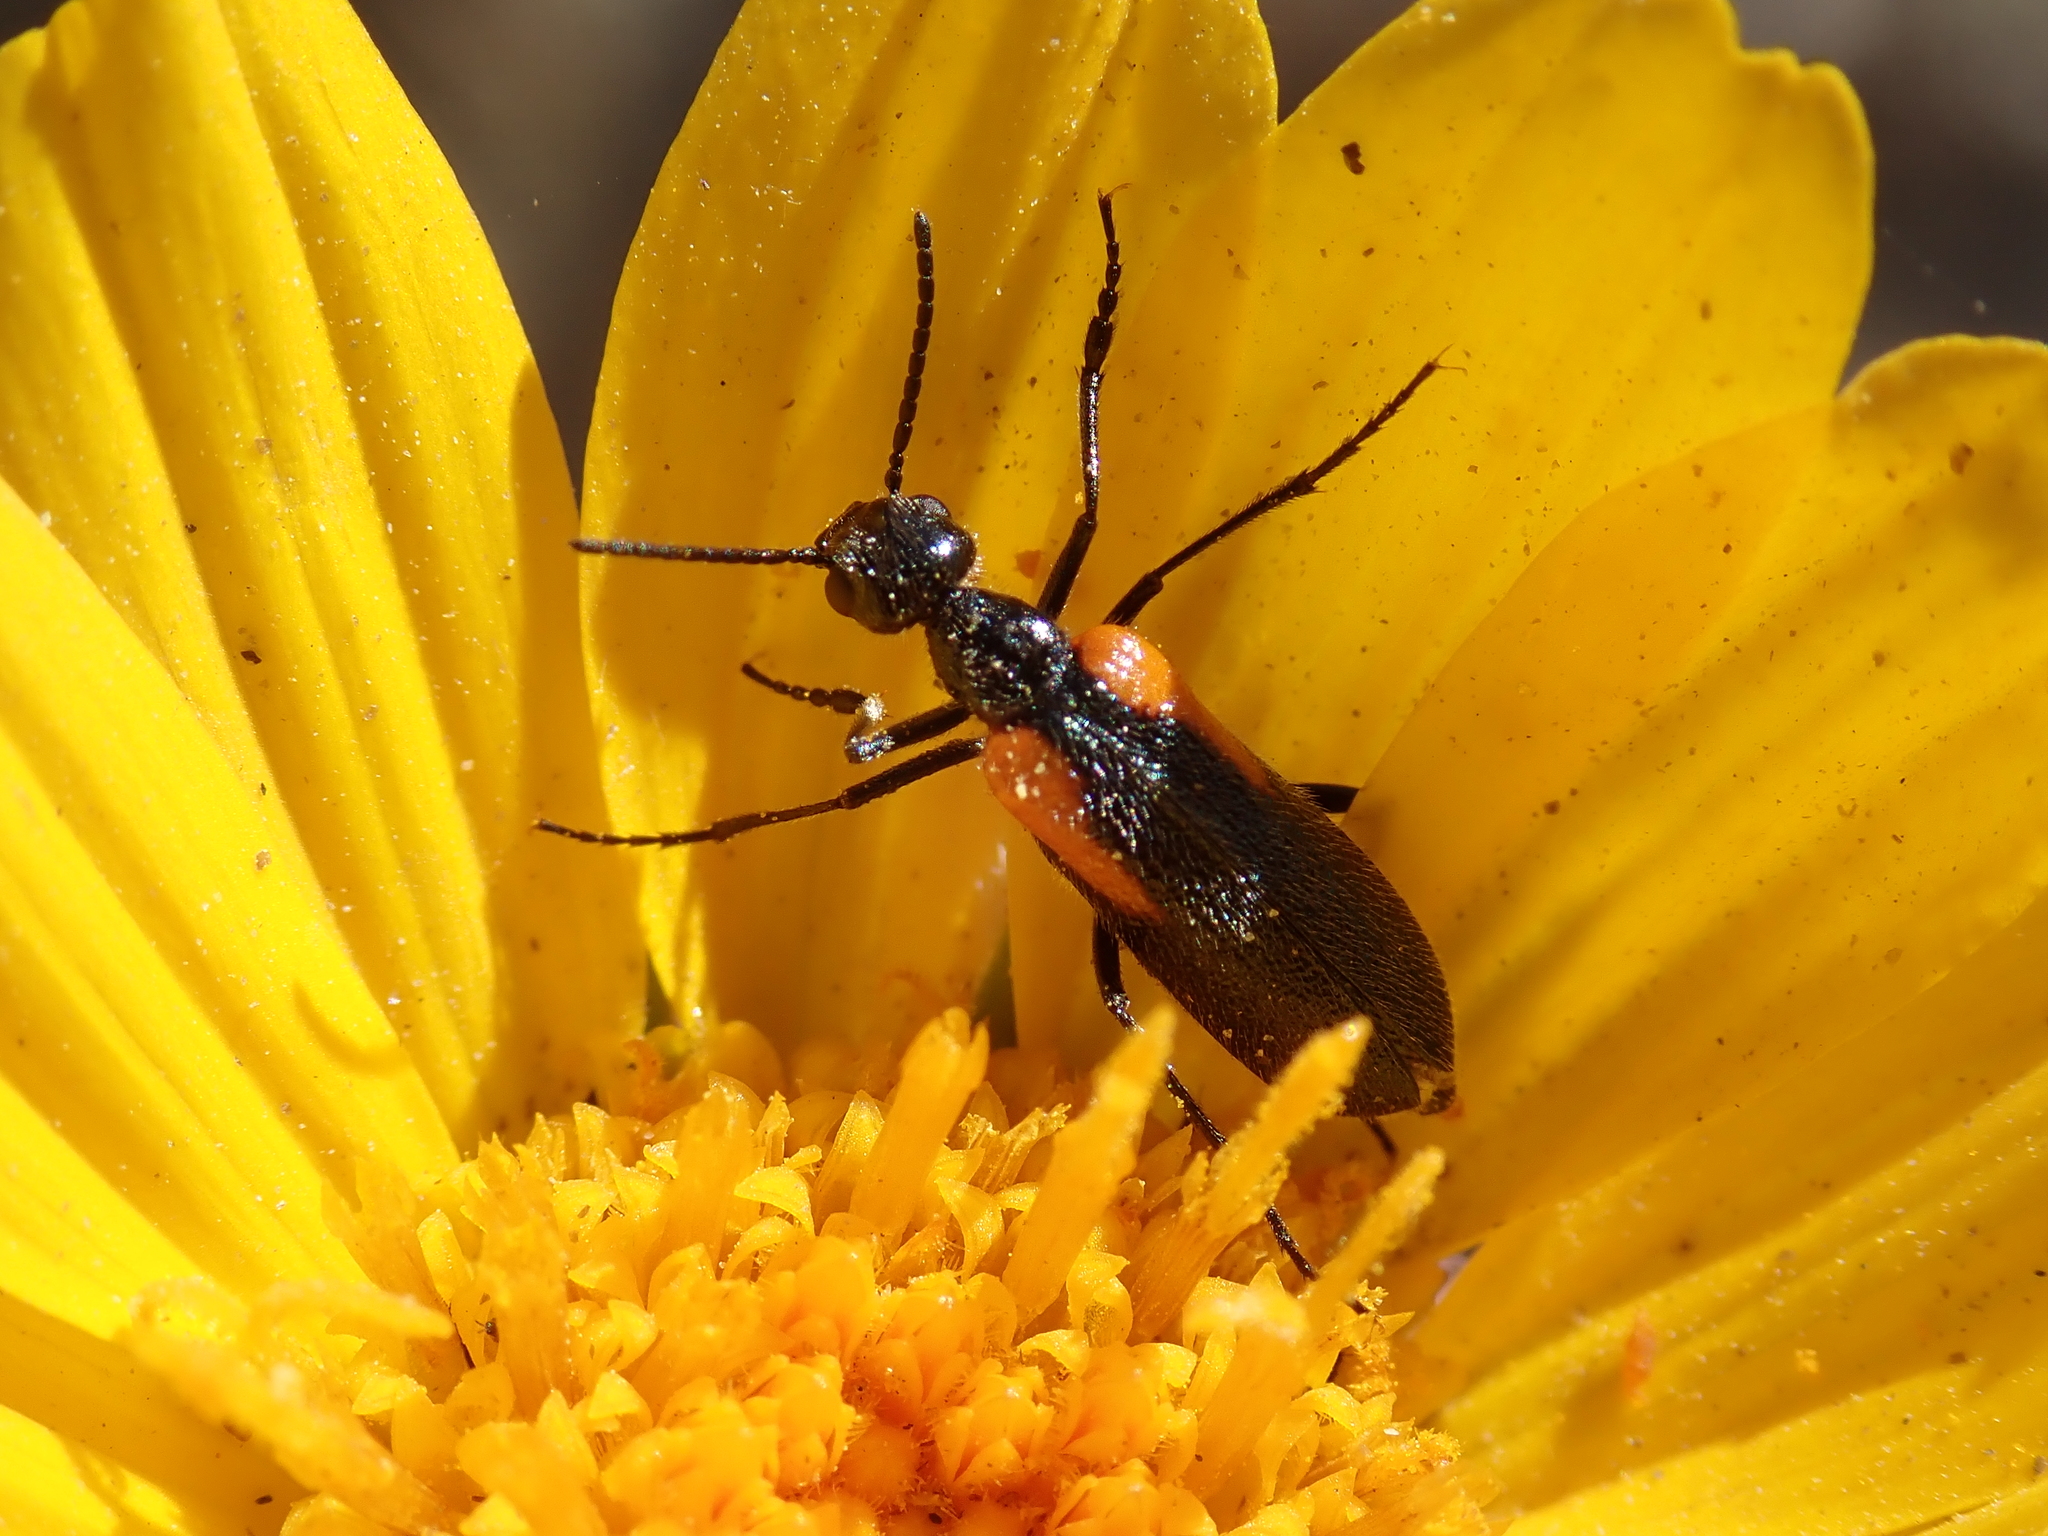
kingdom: Animalia
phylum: Arthropoda
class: Insecta
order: Coleoptera
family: Meloidae
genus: Eupompha
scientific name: Eupompha elegans
